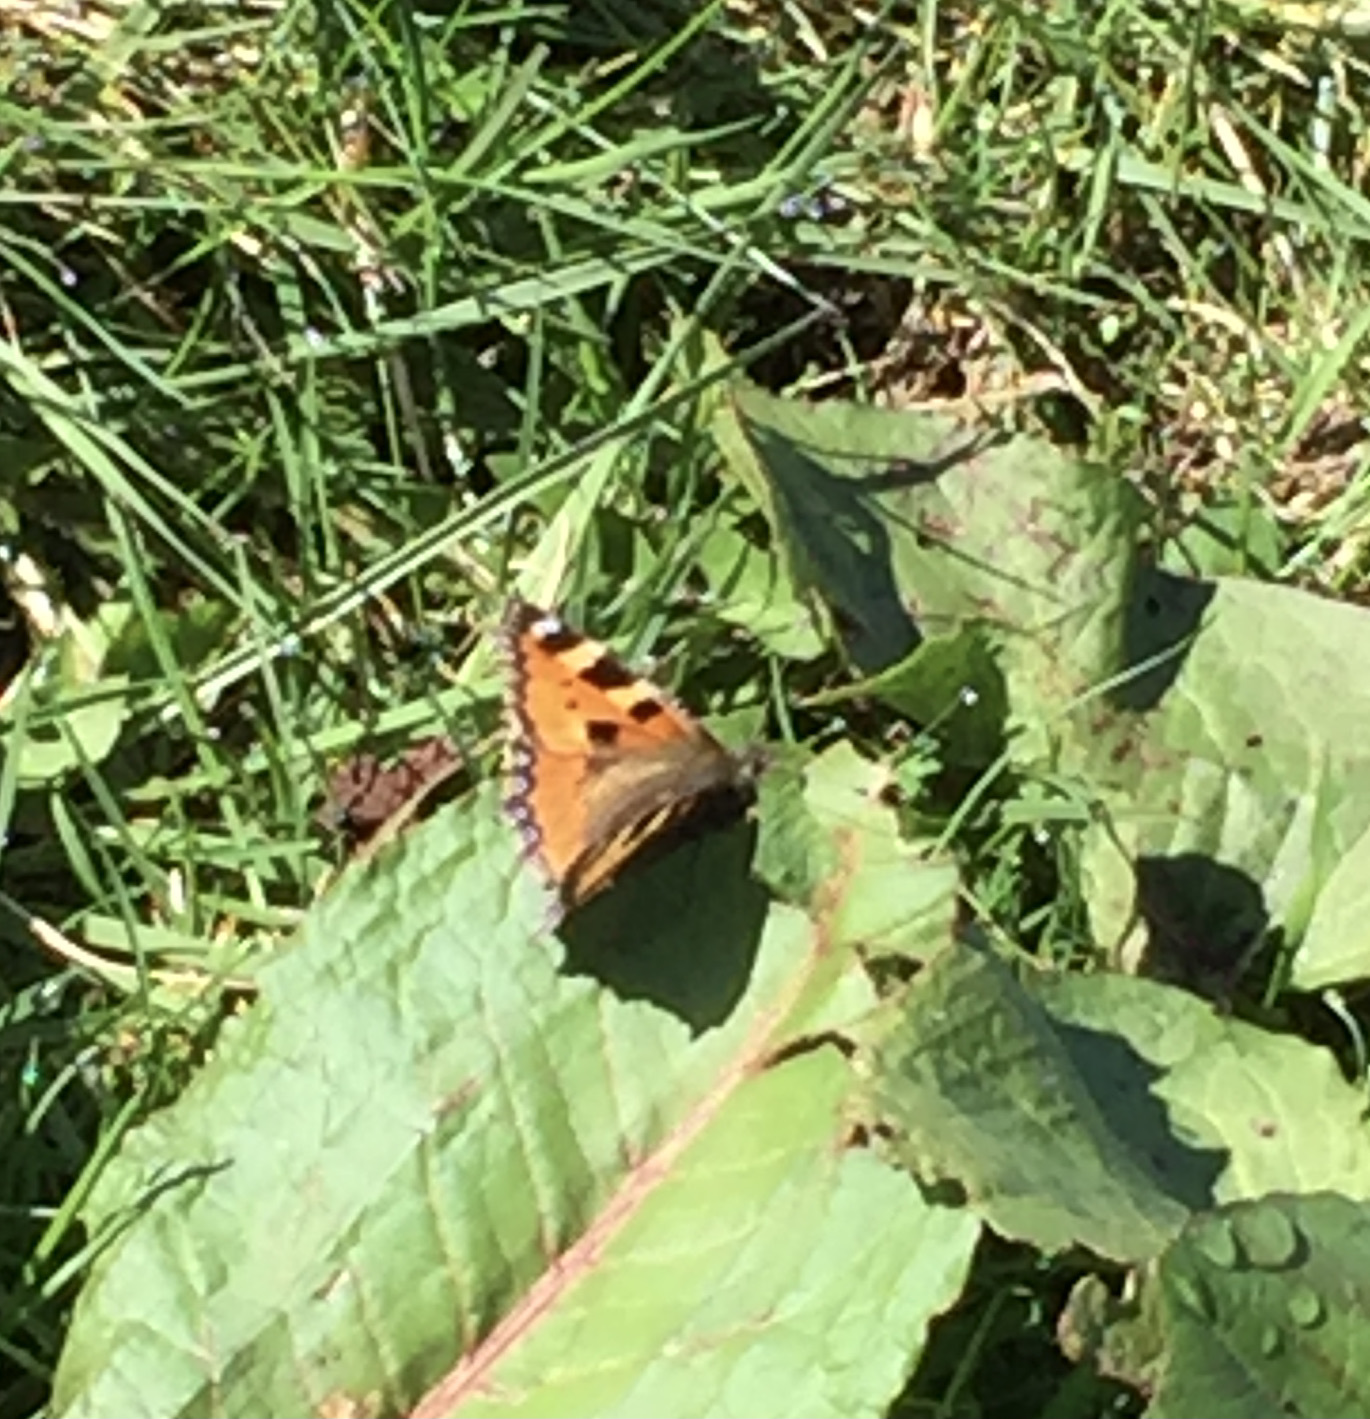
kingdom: Animalia
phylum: Arthropoda
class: Insecta
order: Lepidoptera
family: Nymphalidae
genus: Aglais
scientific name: Aglais urticae
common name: Small tortoiseshell
